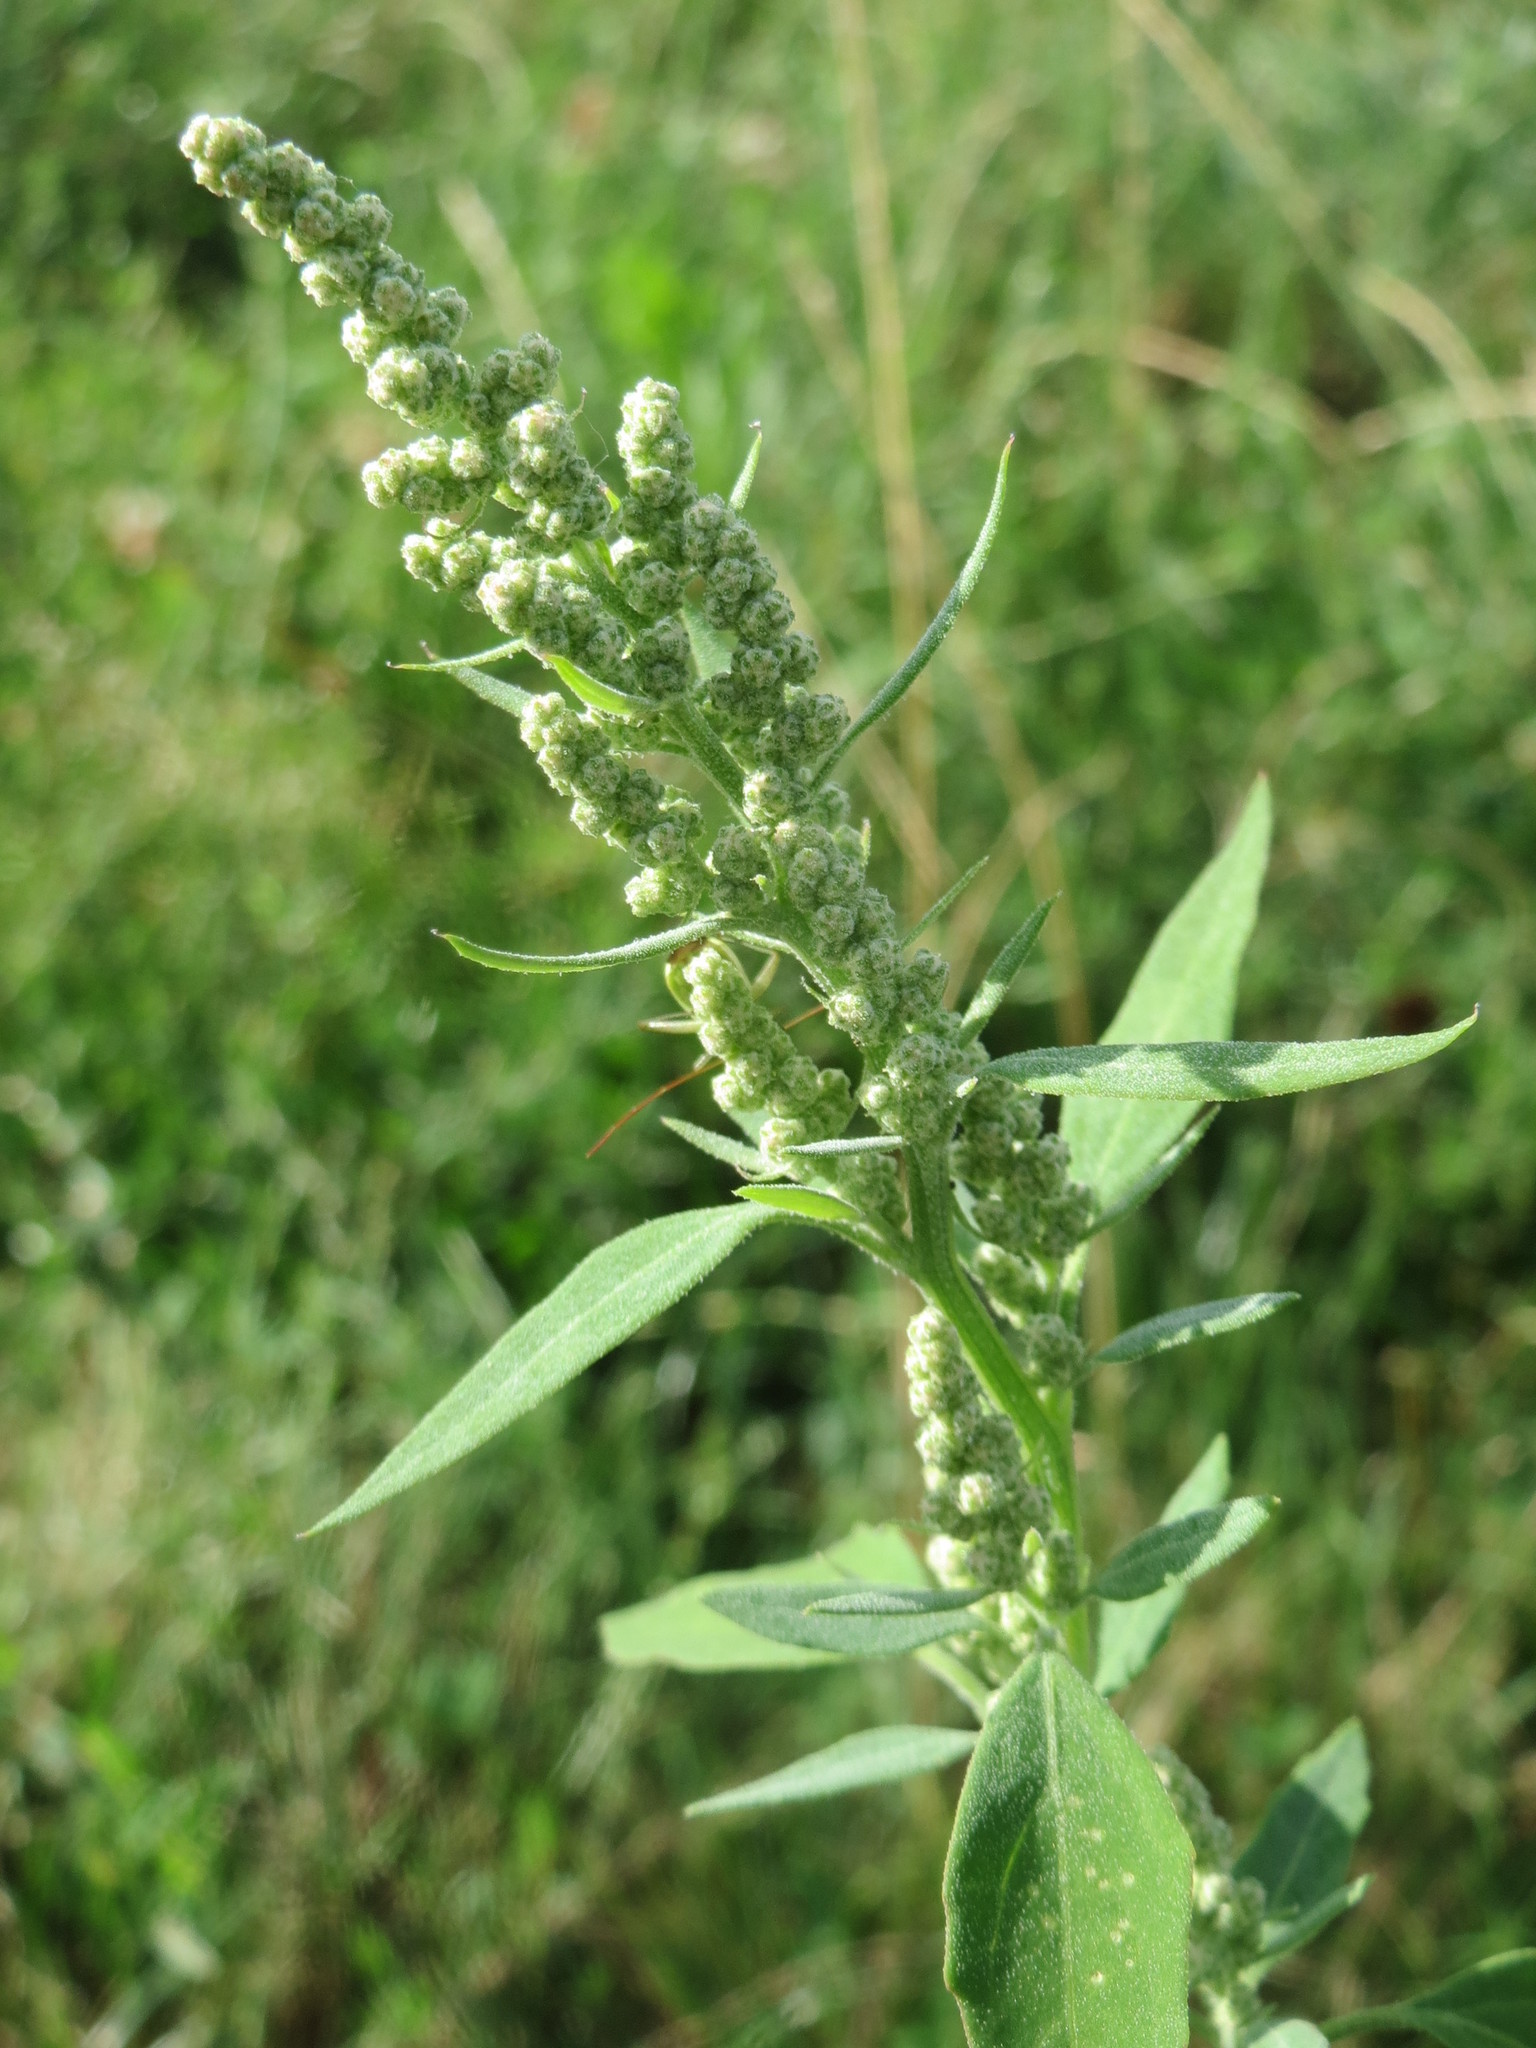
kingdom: Plantae
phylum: Tracheophyta
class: Magnoliopsida
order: Caryophyllales
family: Amaranthaceae
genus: Chenopodium
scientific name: Chenopodium album
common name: Fat-hen
